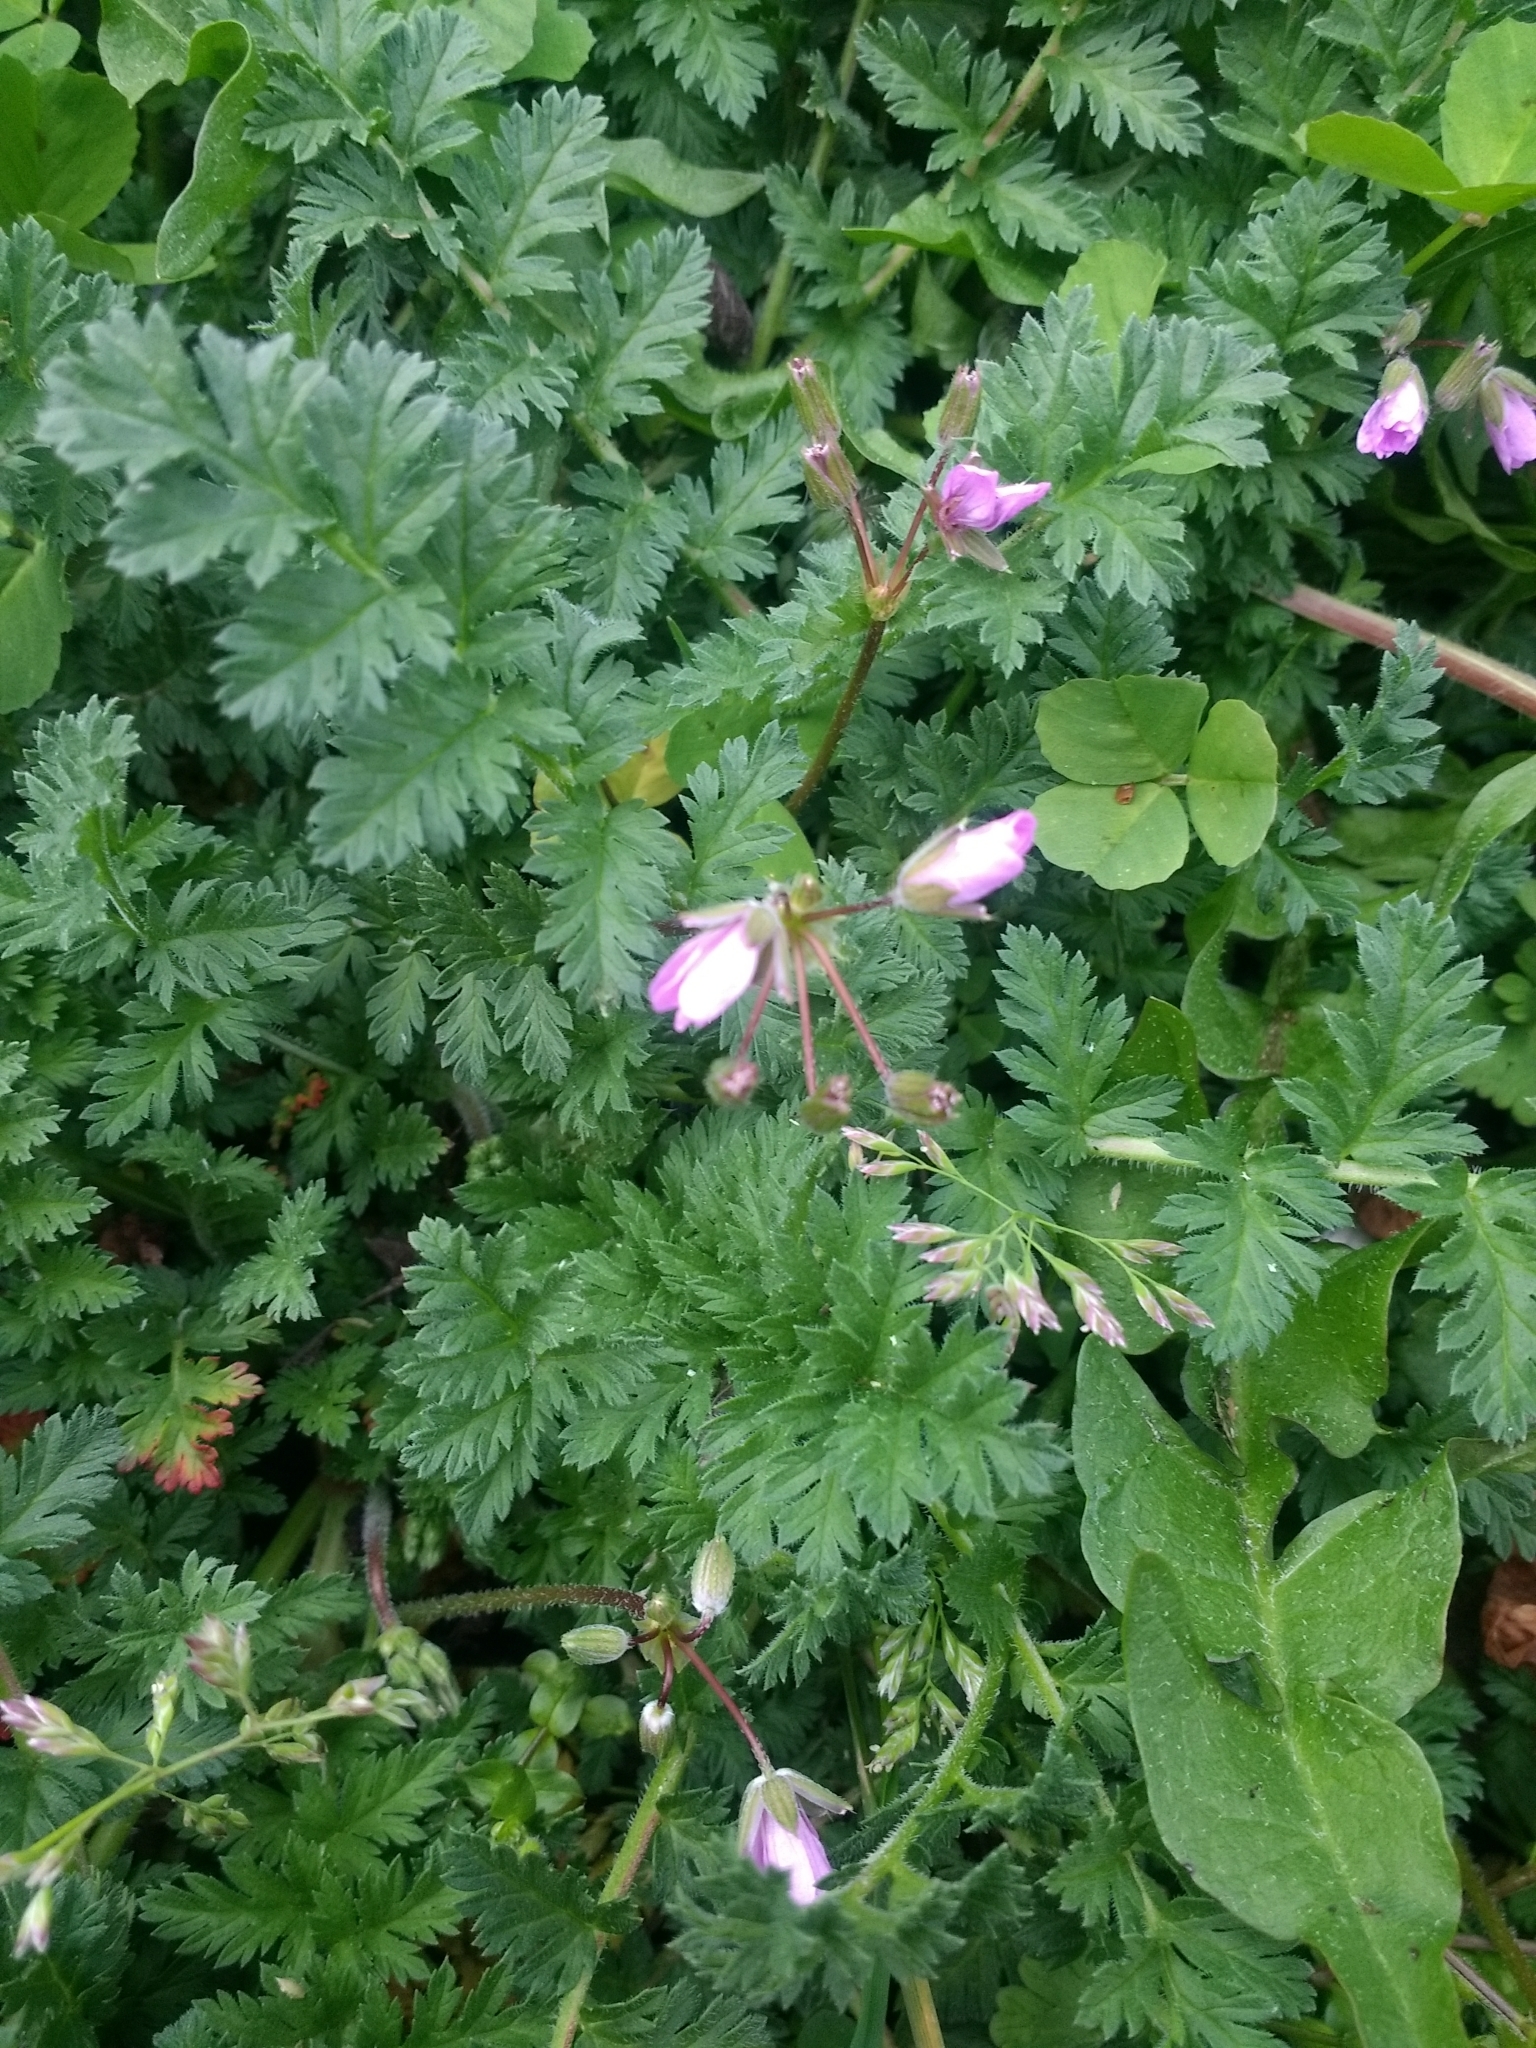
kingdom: Plantae
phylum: Tracheophyta
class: Magnoliopsida
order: Geraniales
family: Geraniaceae
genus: Erodium
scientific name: Erodium cicutarium
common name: Common stork's-bill
